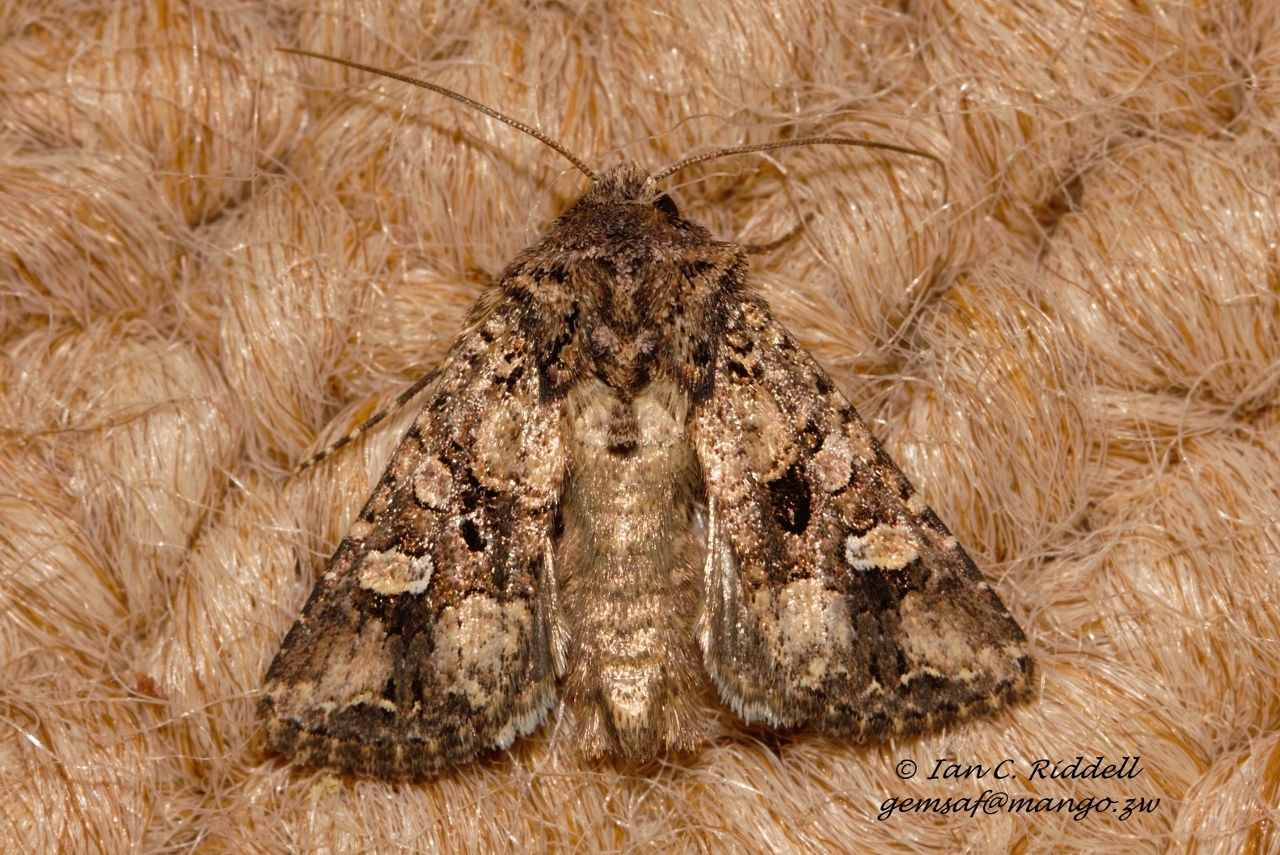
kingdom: Animalia
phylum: Arthropoda
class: Insecta
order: Lepidoptera
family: Noctuidae
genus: Tycomarptes
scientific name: Tycomarptes inferior
